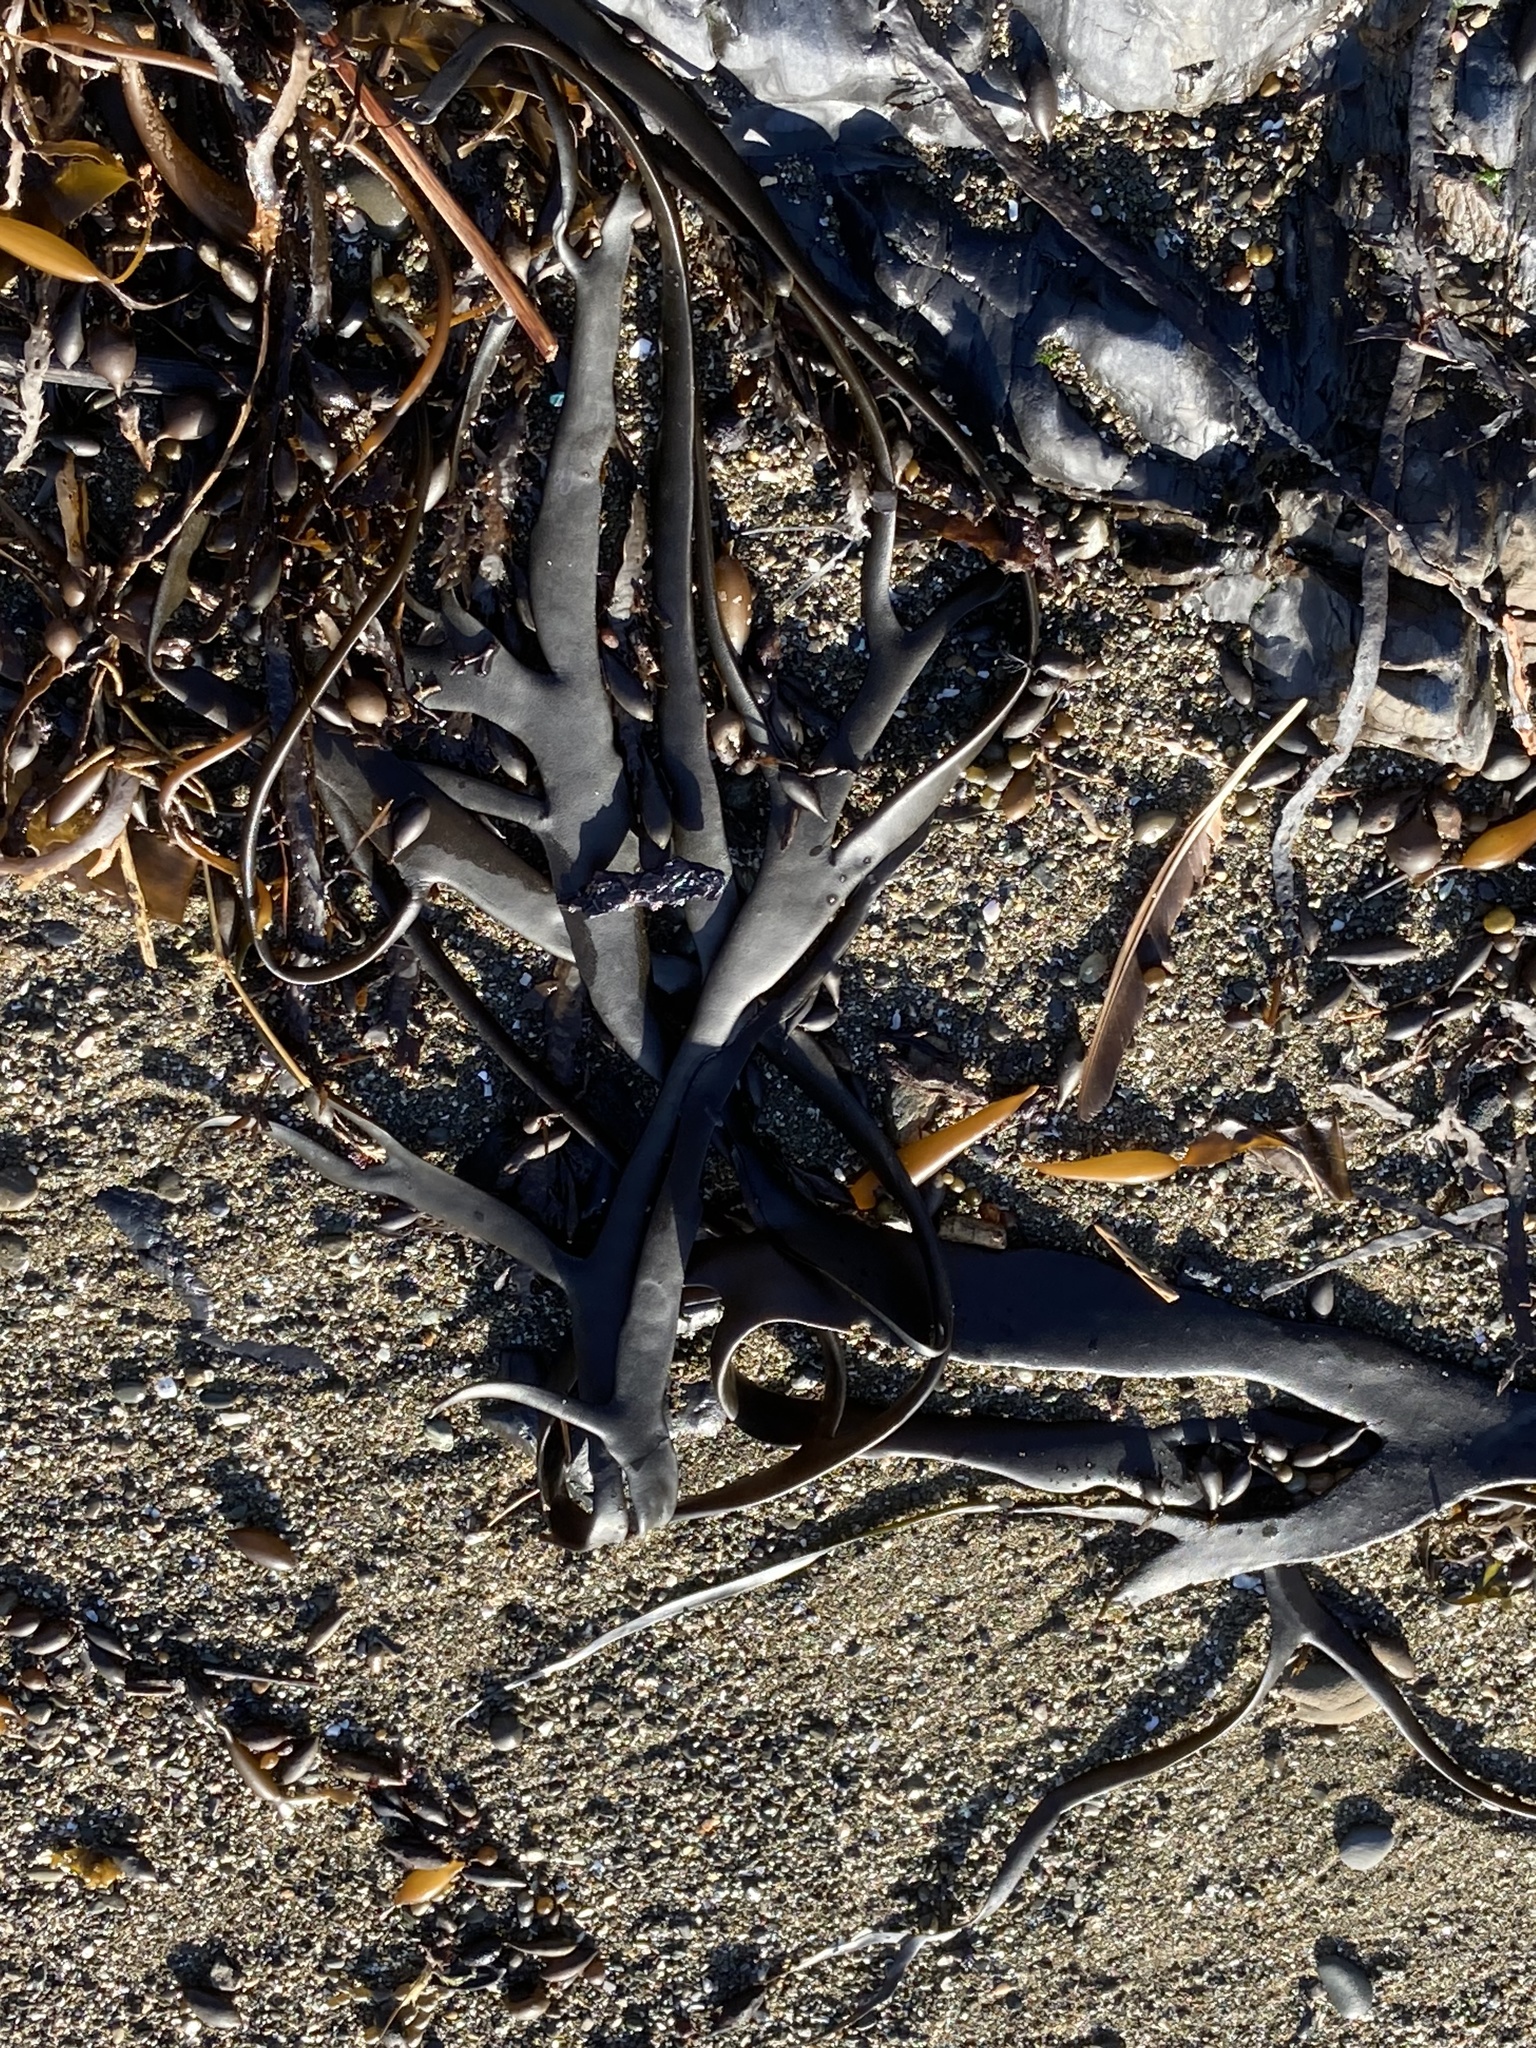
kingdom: Chromista
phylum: Ochrophyta
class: Phaeophyceae
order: Fucales
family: Durvillaeaceae
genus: Durvillaea
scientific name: Durvillaea antarctica
